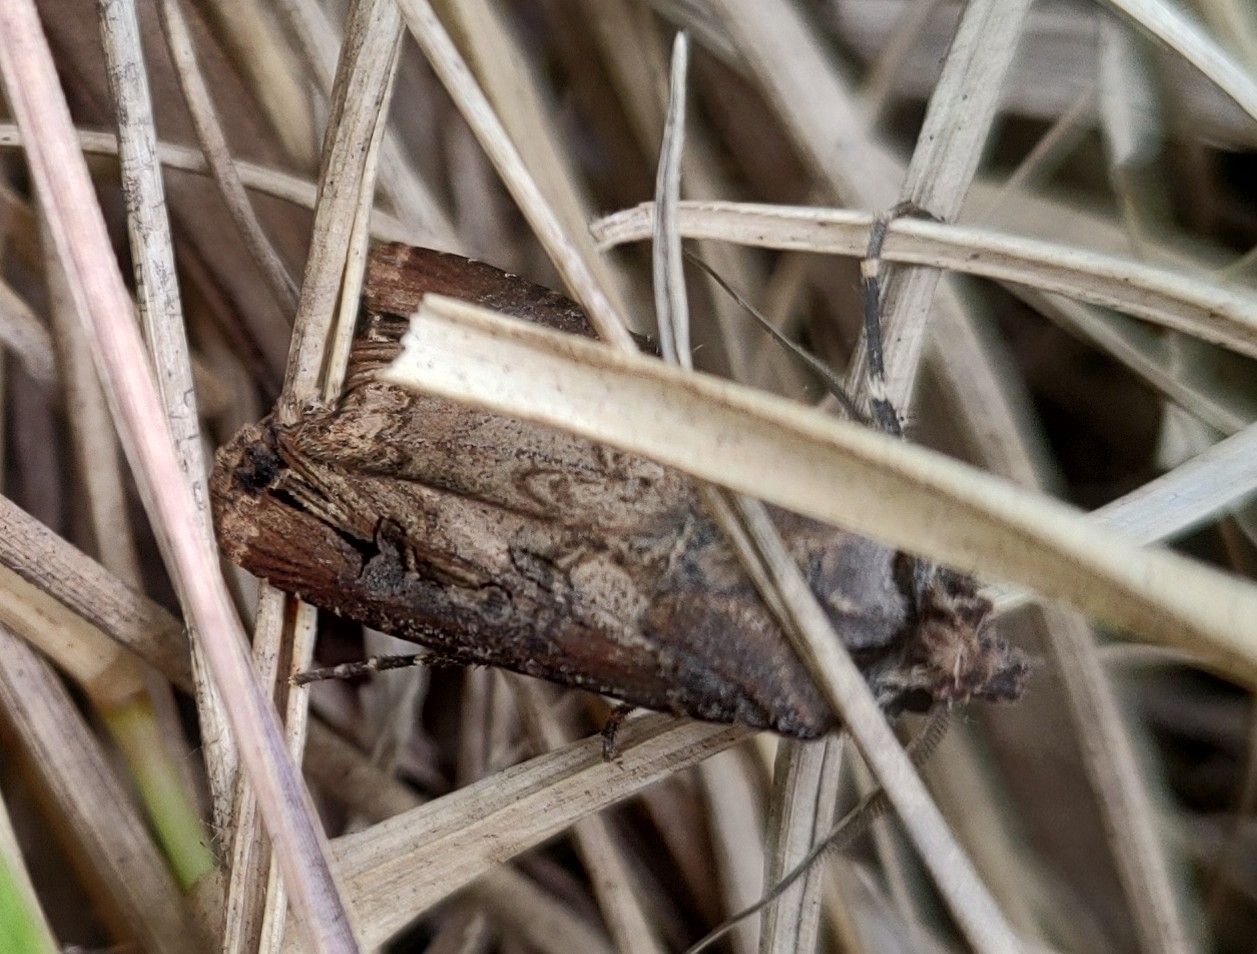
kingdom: Animalia
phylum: Arthropoda
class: Insecta
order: Lepidoptera
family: Noctuidae
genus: Agrotis
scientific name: Agrotis ipsilon
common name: Dark sword-grass
